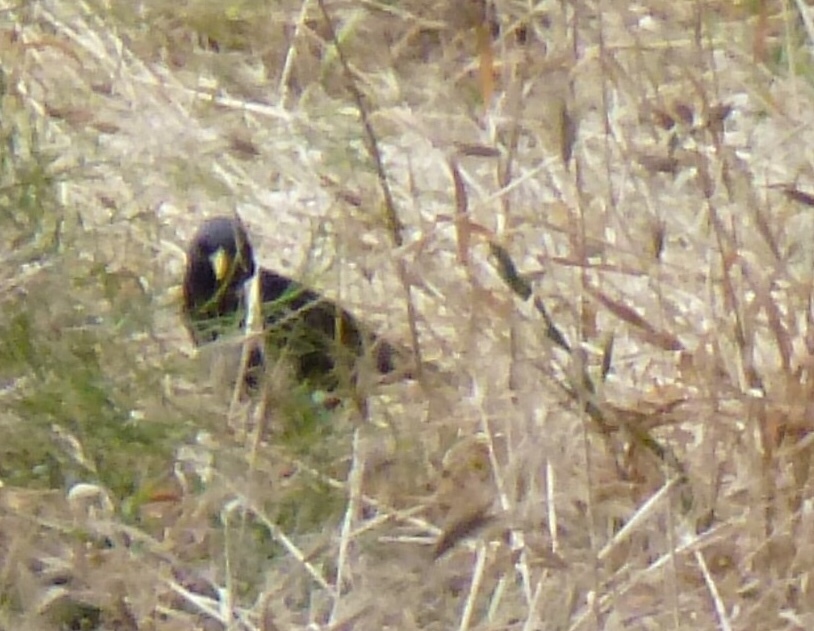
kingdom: Animalia
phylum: Chordata
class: Aves
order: Passeriformes
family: Sturnidae
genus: Sturnus
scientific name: Sturnus vulgaris
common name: Common starling
